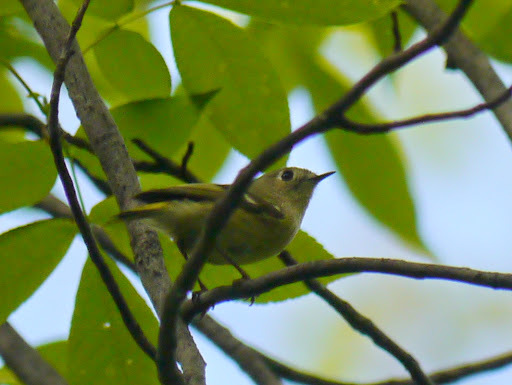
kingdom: Animalia
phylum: Chordata
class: Aves
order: Passeriformes
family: Regulidae
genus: Regulus
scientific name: Regulus calendula
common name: Ruby-crowned kinglet
